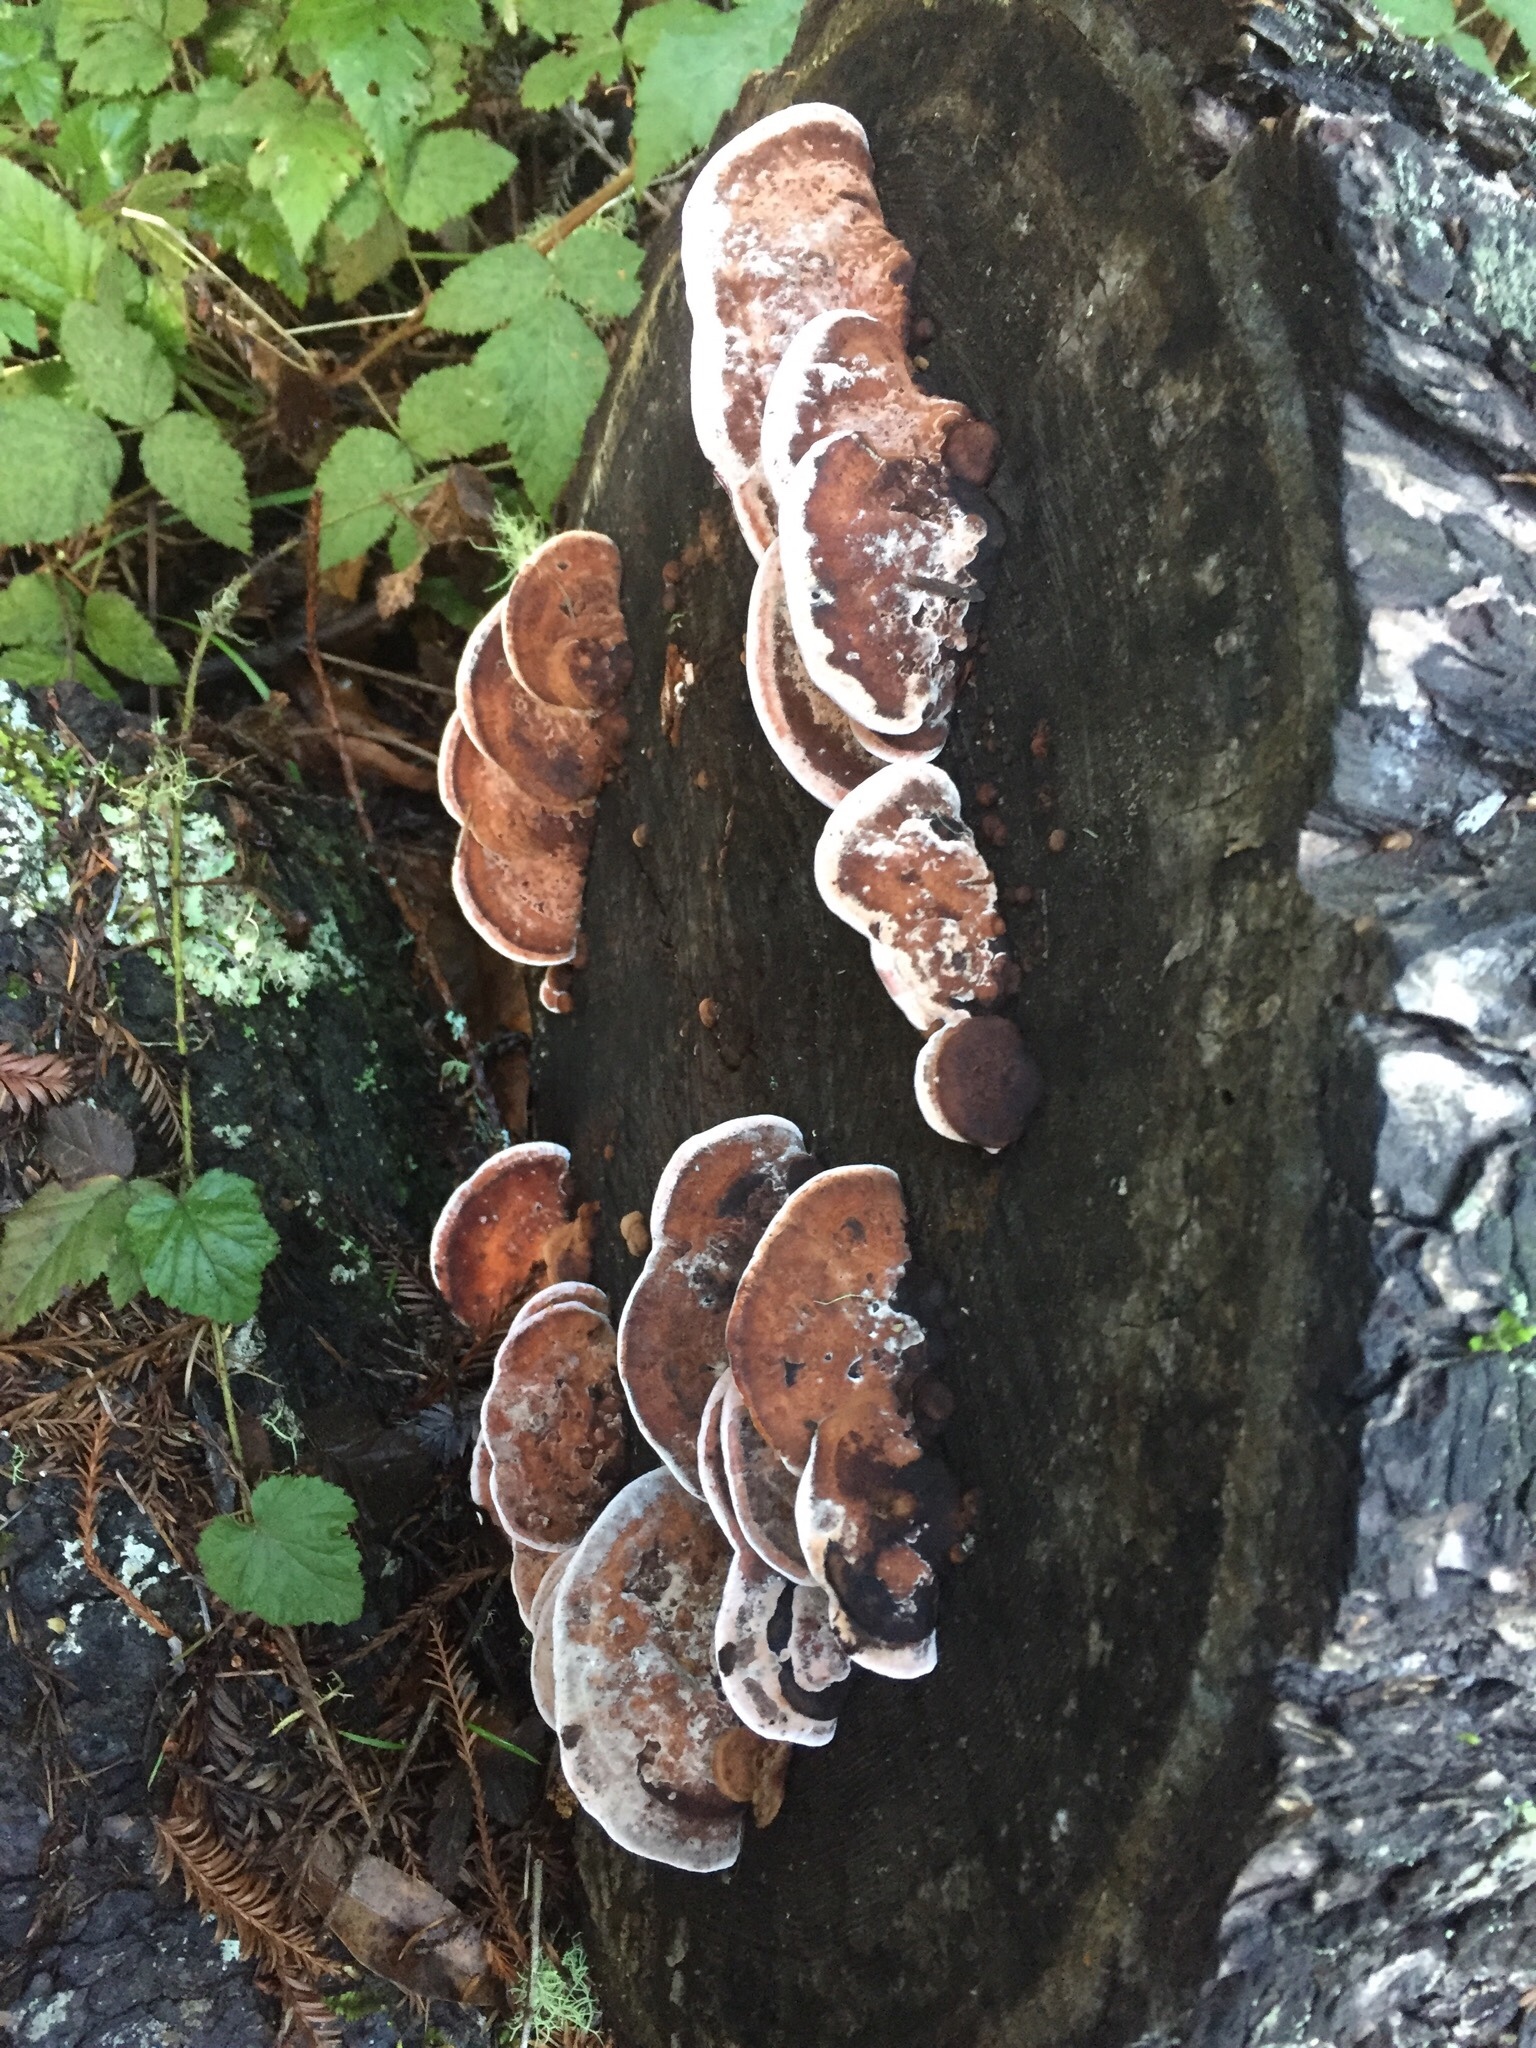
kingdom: Fungi
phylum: Basidiomycota
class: Agaricomycetes
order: Polyporales
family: Fomitopsidaceae
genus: Rhodofomes
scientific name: Rhodofomes cajanderi
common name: Rosy conk
